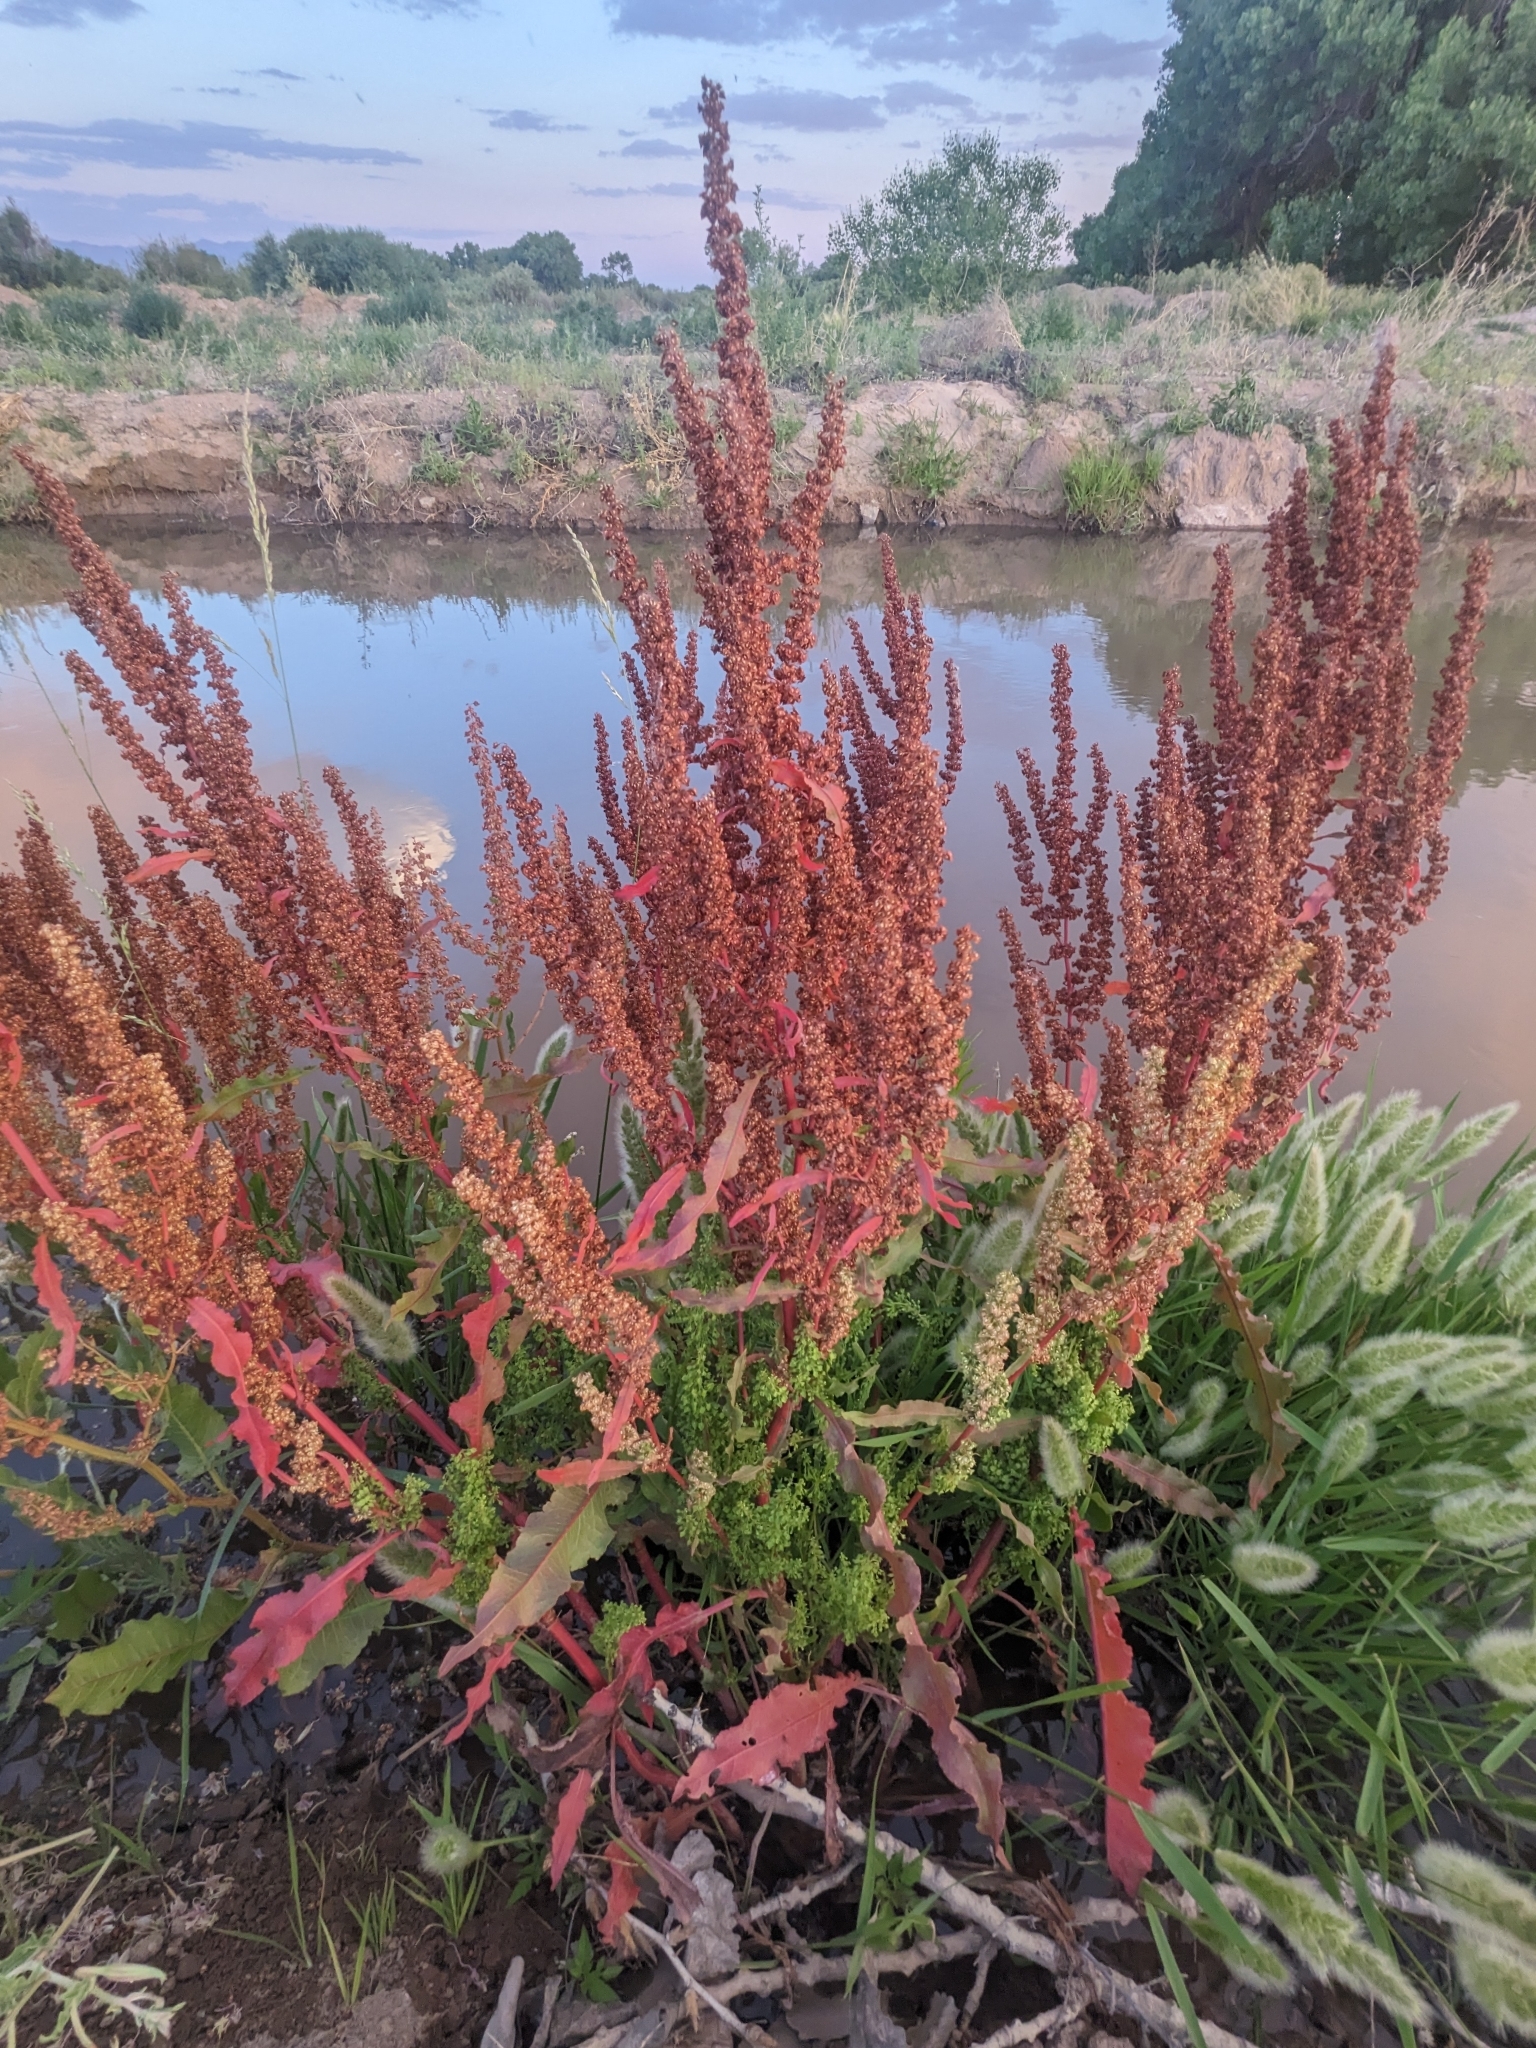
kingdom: Plantae
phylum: Tracheophyta
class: Magnoliopsida
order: Caryophyllales
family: Polygonaceae
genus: Rumex
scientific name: Rumex crispus
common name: Curled dock
